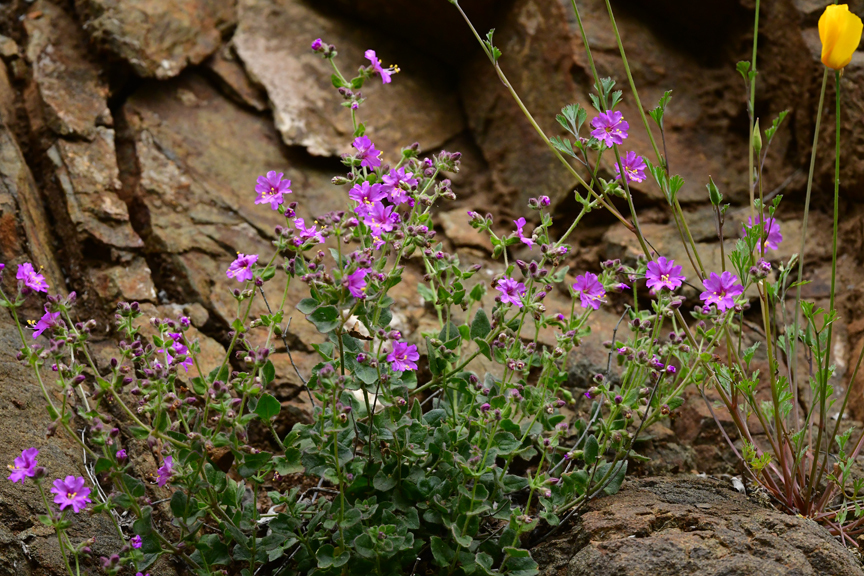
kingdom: Plantae
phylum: Tracheophyta
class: Magnoliopsida
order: Caryophyllales
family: Nyctaginaceae
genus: Mirabilis
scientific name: Mirabilis laevis
